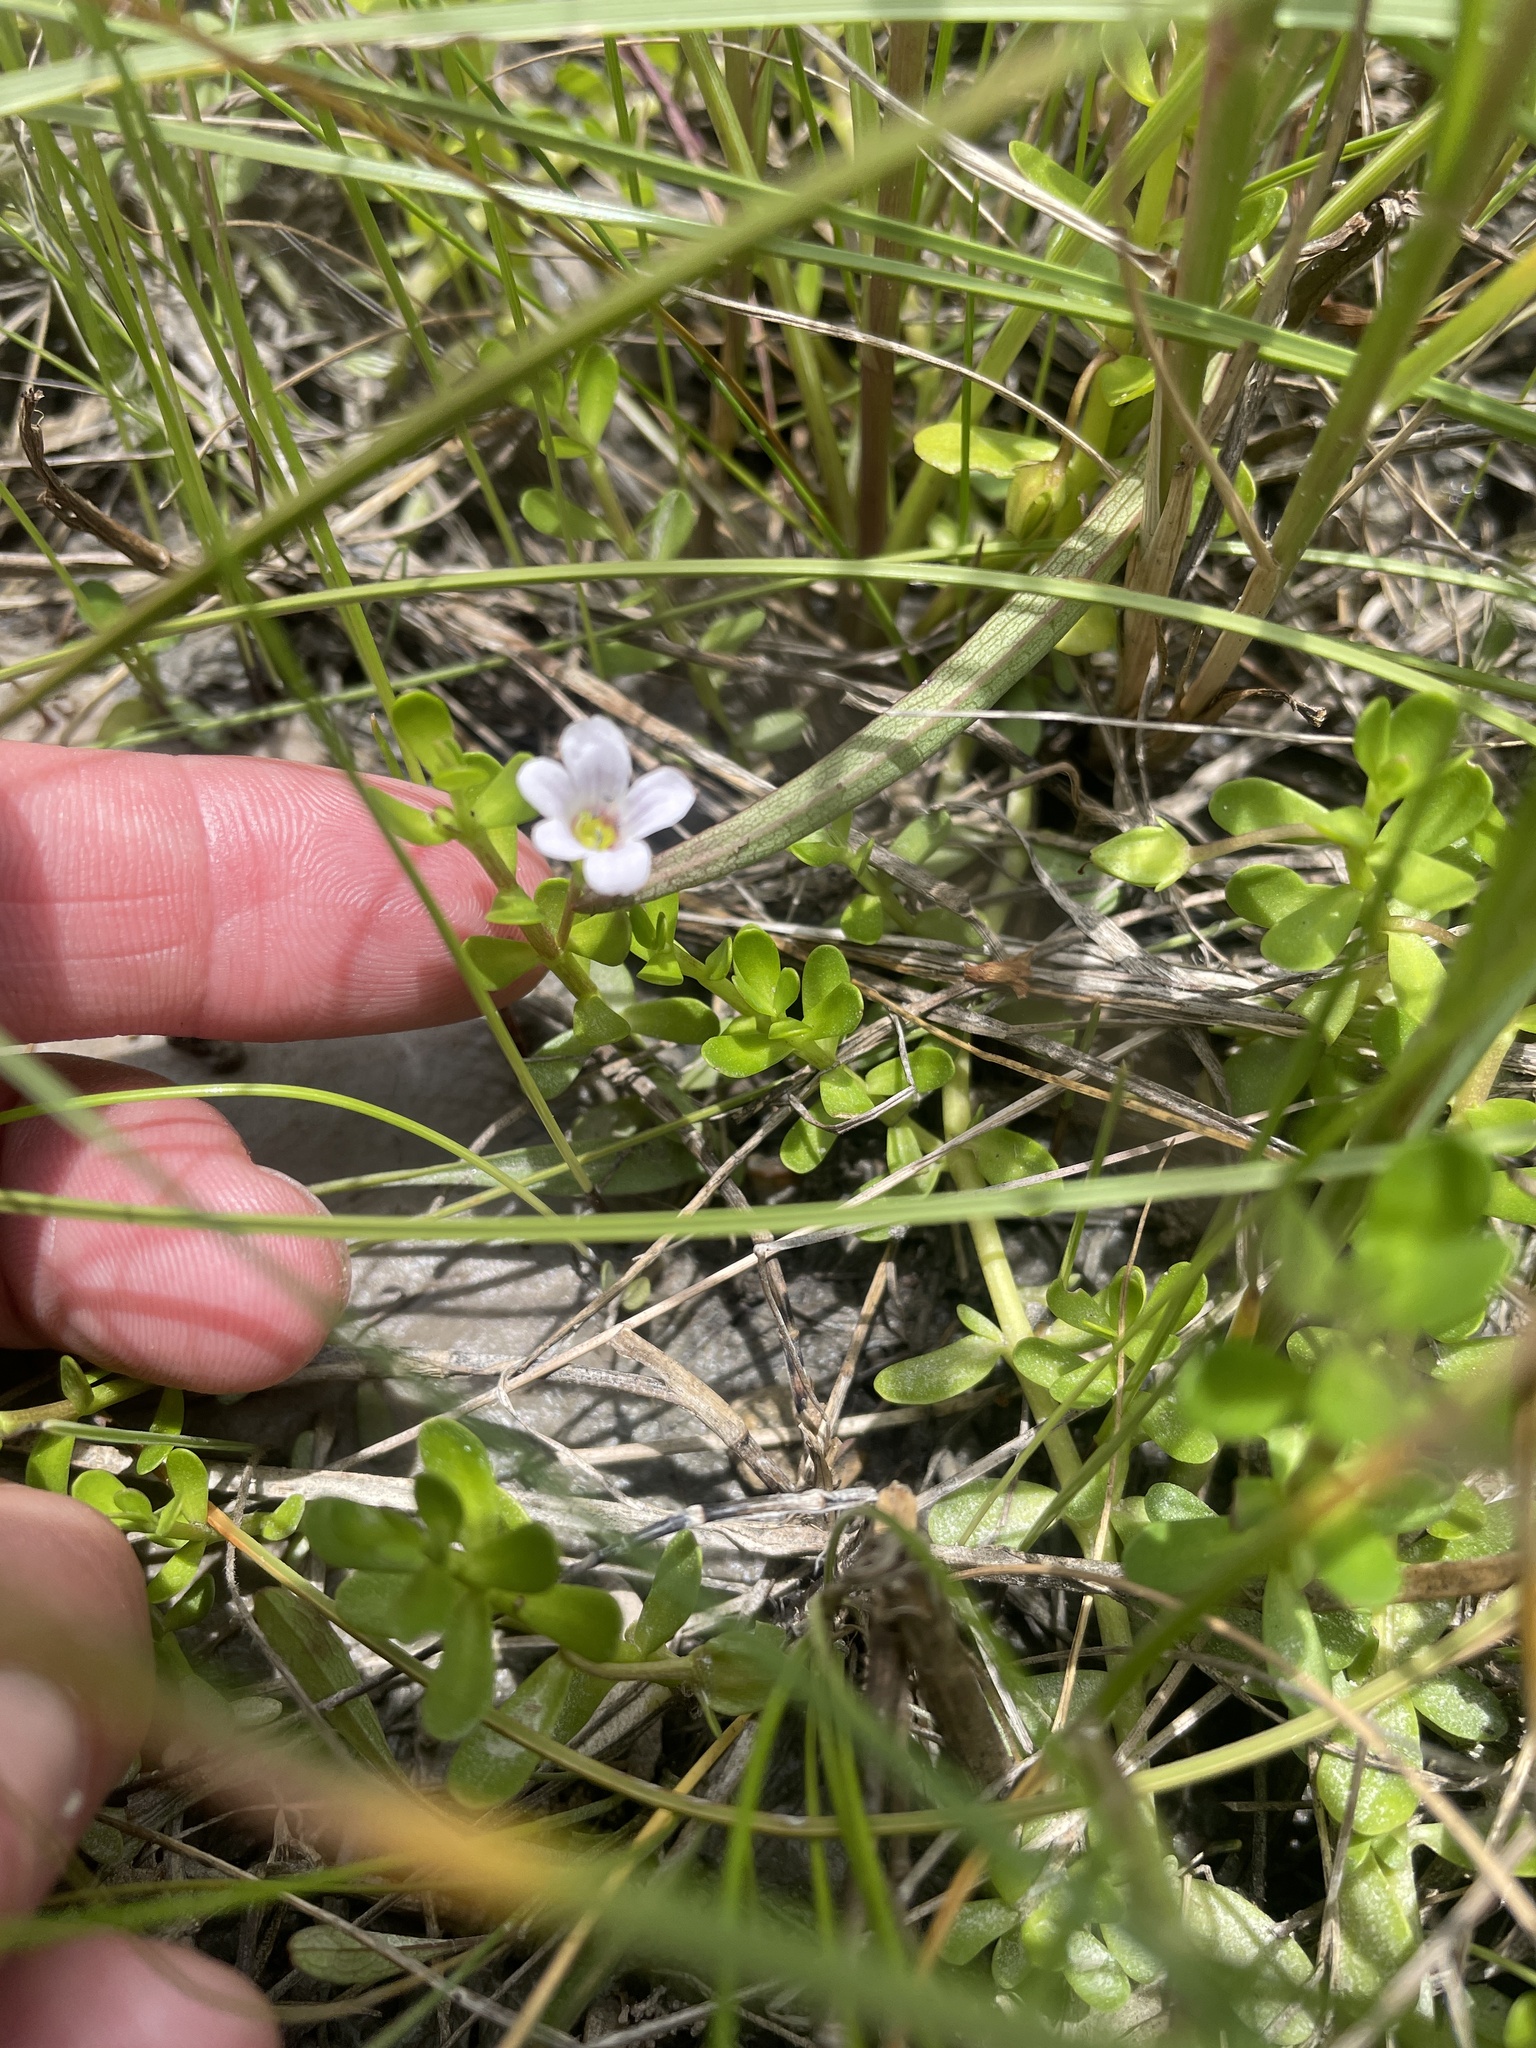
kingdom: Plantae
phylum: Tracheophyta
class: Magnoliopsida
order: Lamiales
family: Plantaginaceae
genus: Bacopa
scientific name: Bacopa monnieri
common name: Indian-pennywort
